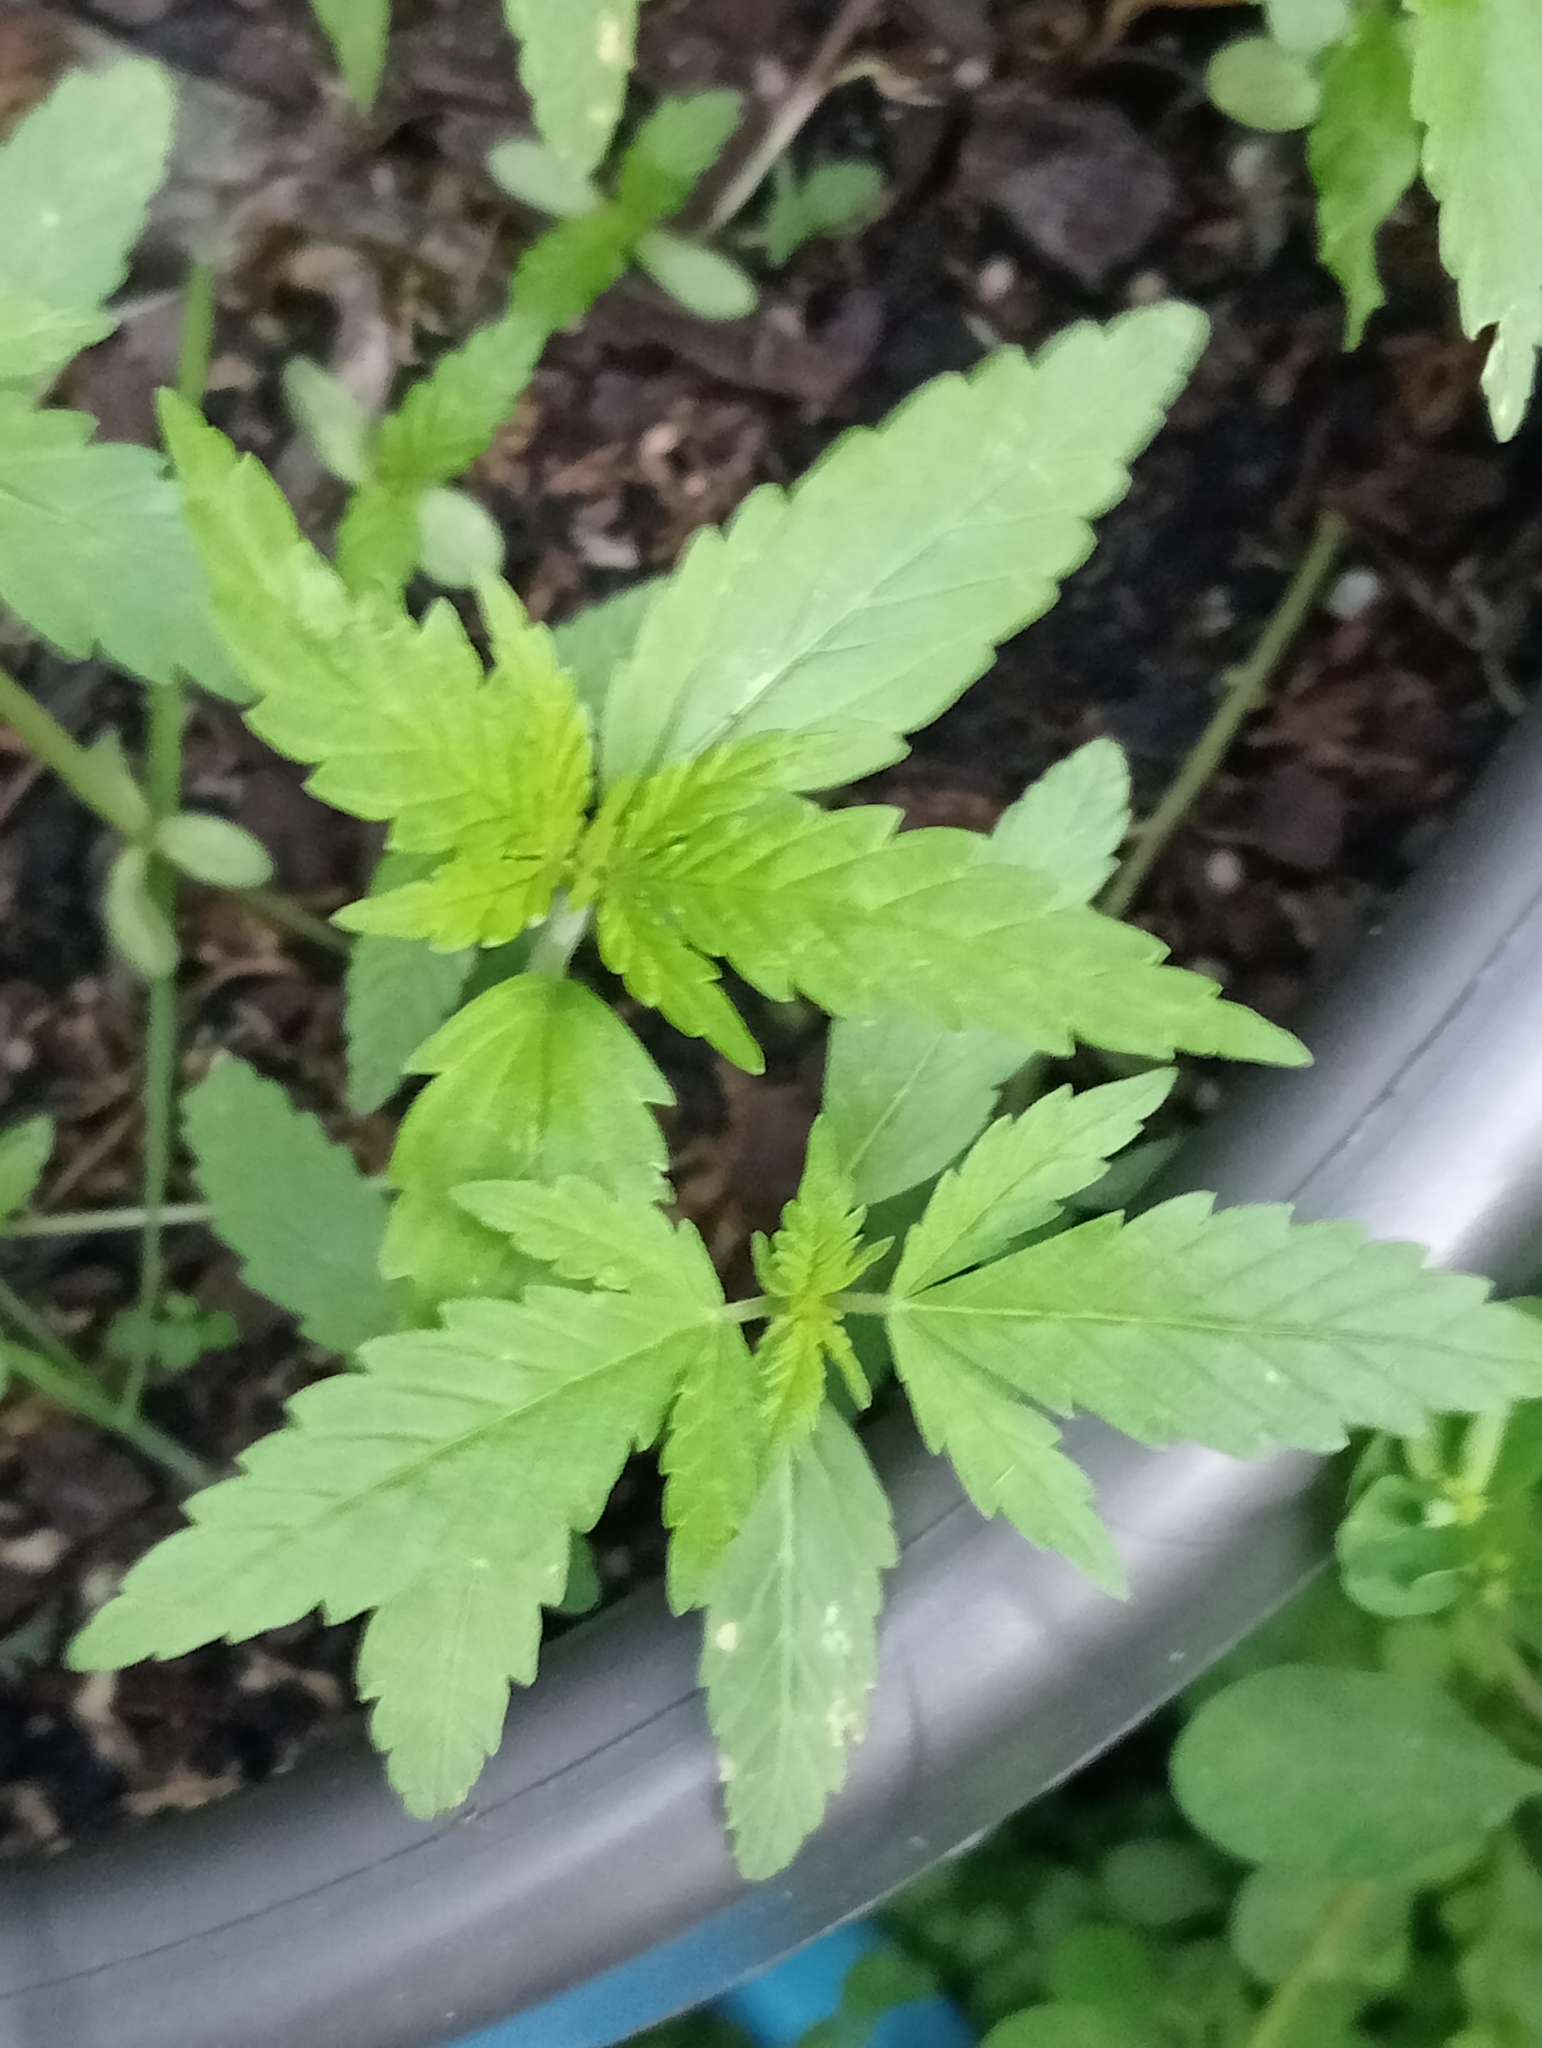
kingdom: Plantae
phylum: Tracheophyta
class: Magnoliopsida
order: Rosales
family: Cannabaceae
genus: Cannabis
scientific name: Cannabis sativa
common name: Hemp
